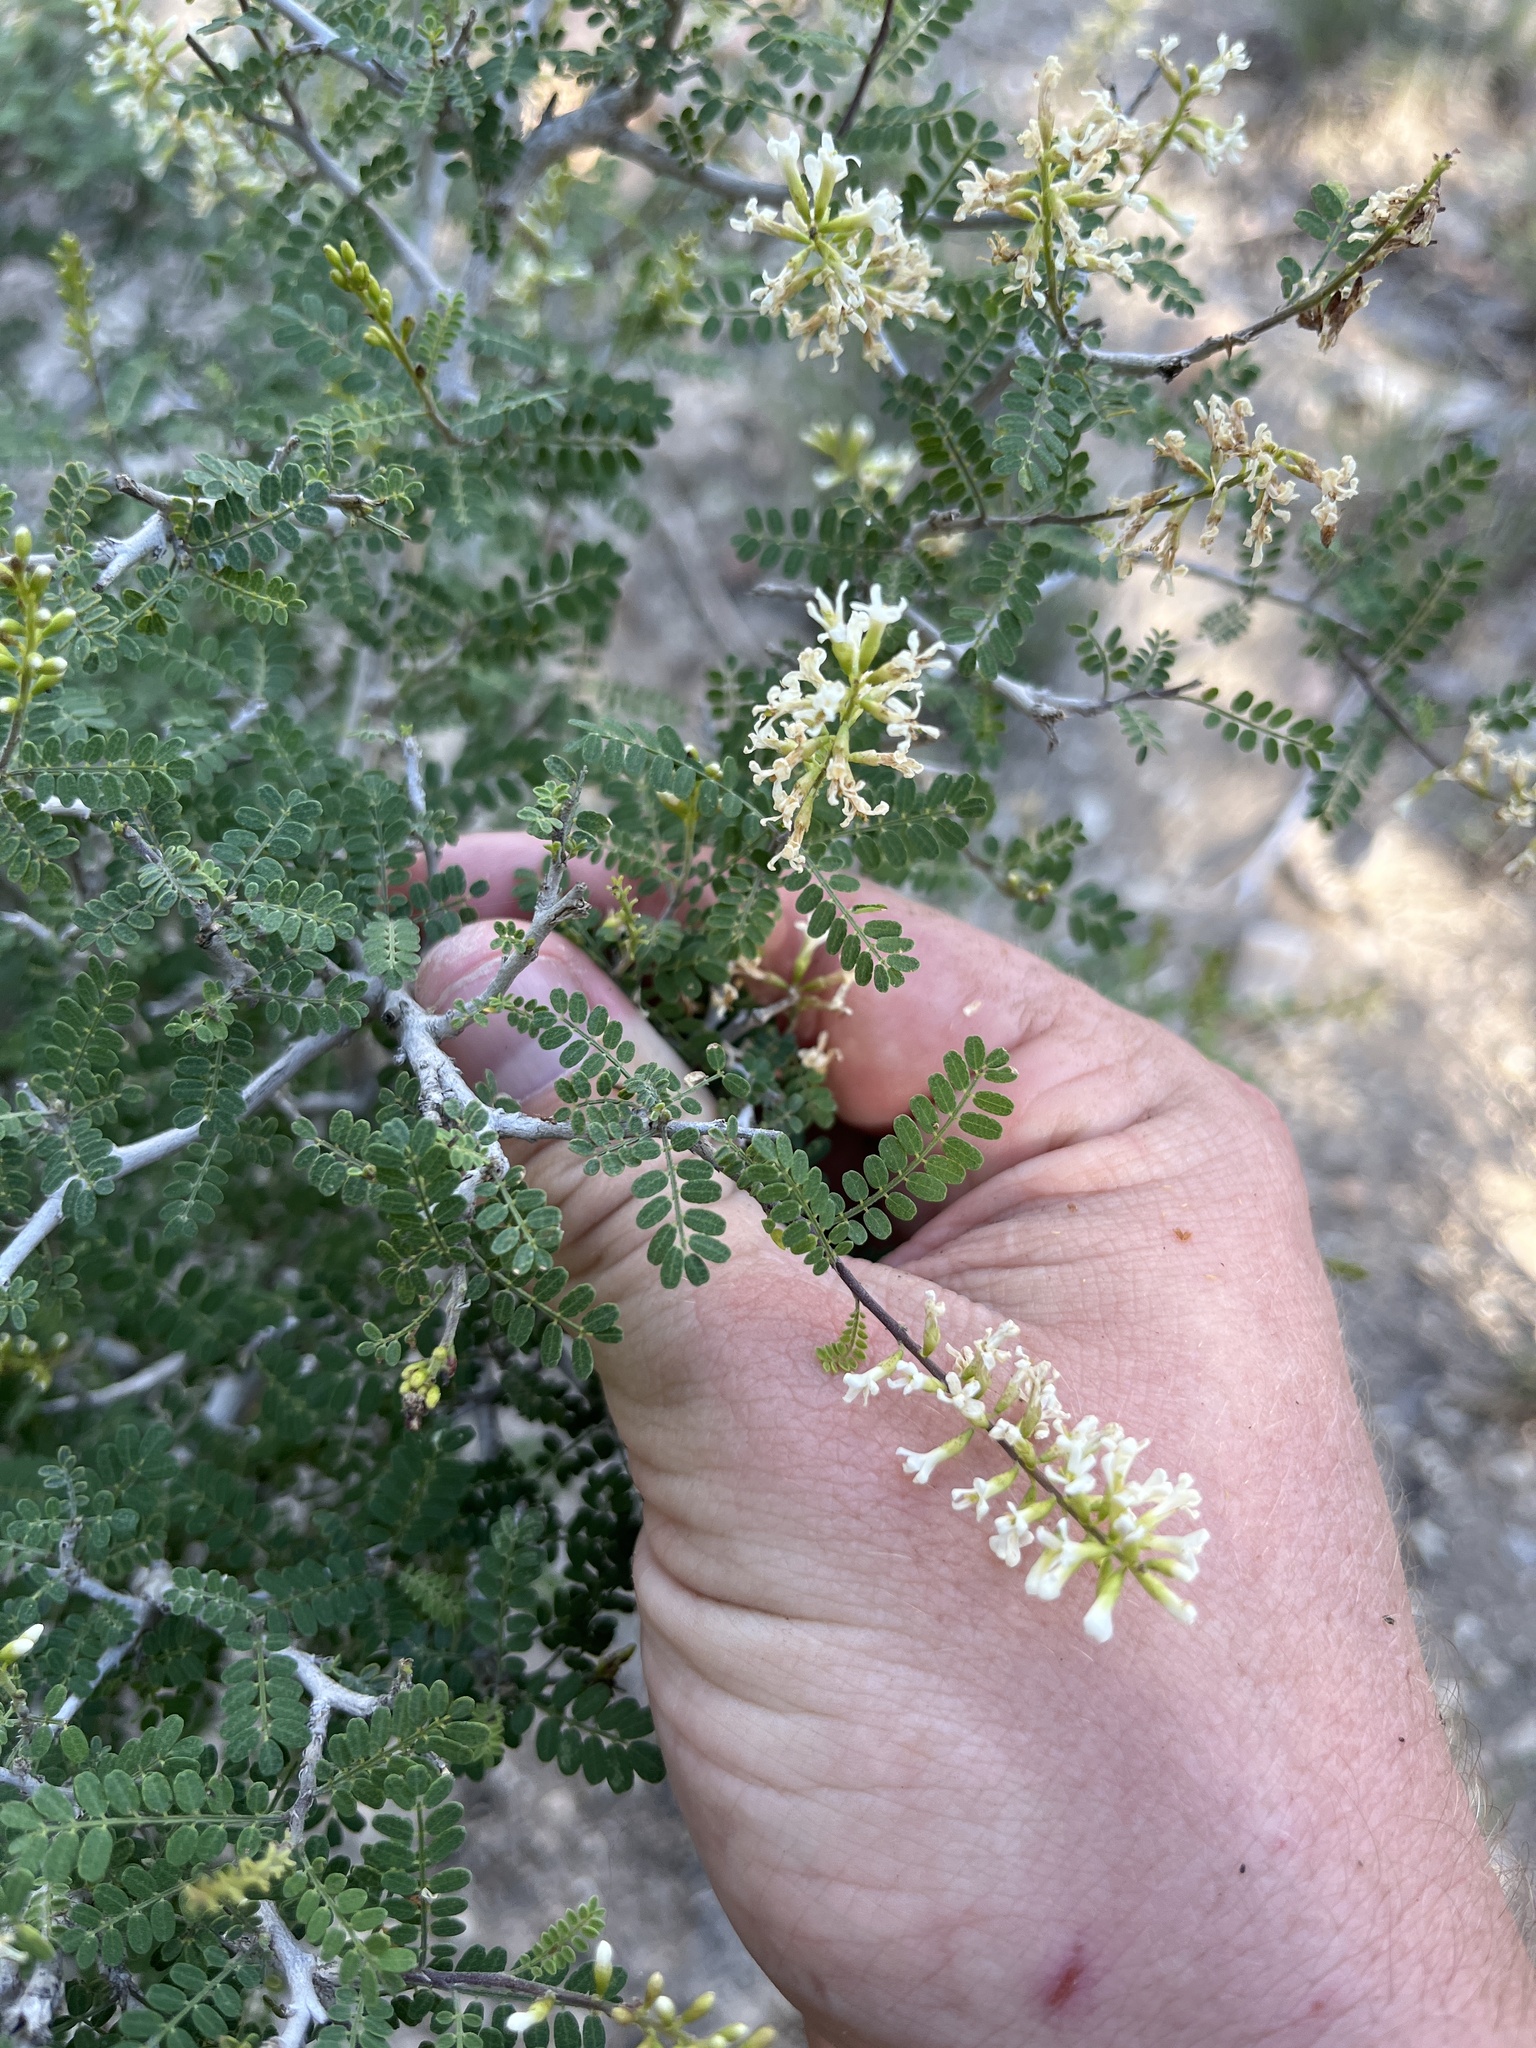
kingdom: Plantae
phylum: Tracheophyta
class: Magnoliopsida
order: Fabales
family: Fabaceae
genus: Eysenhardtia
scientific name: Eysenhardtia texana
